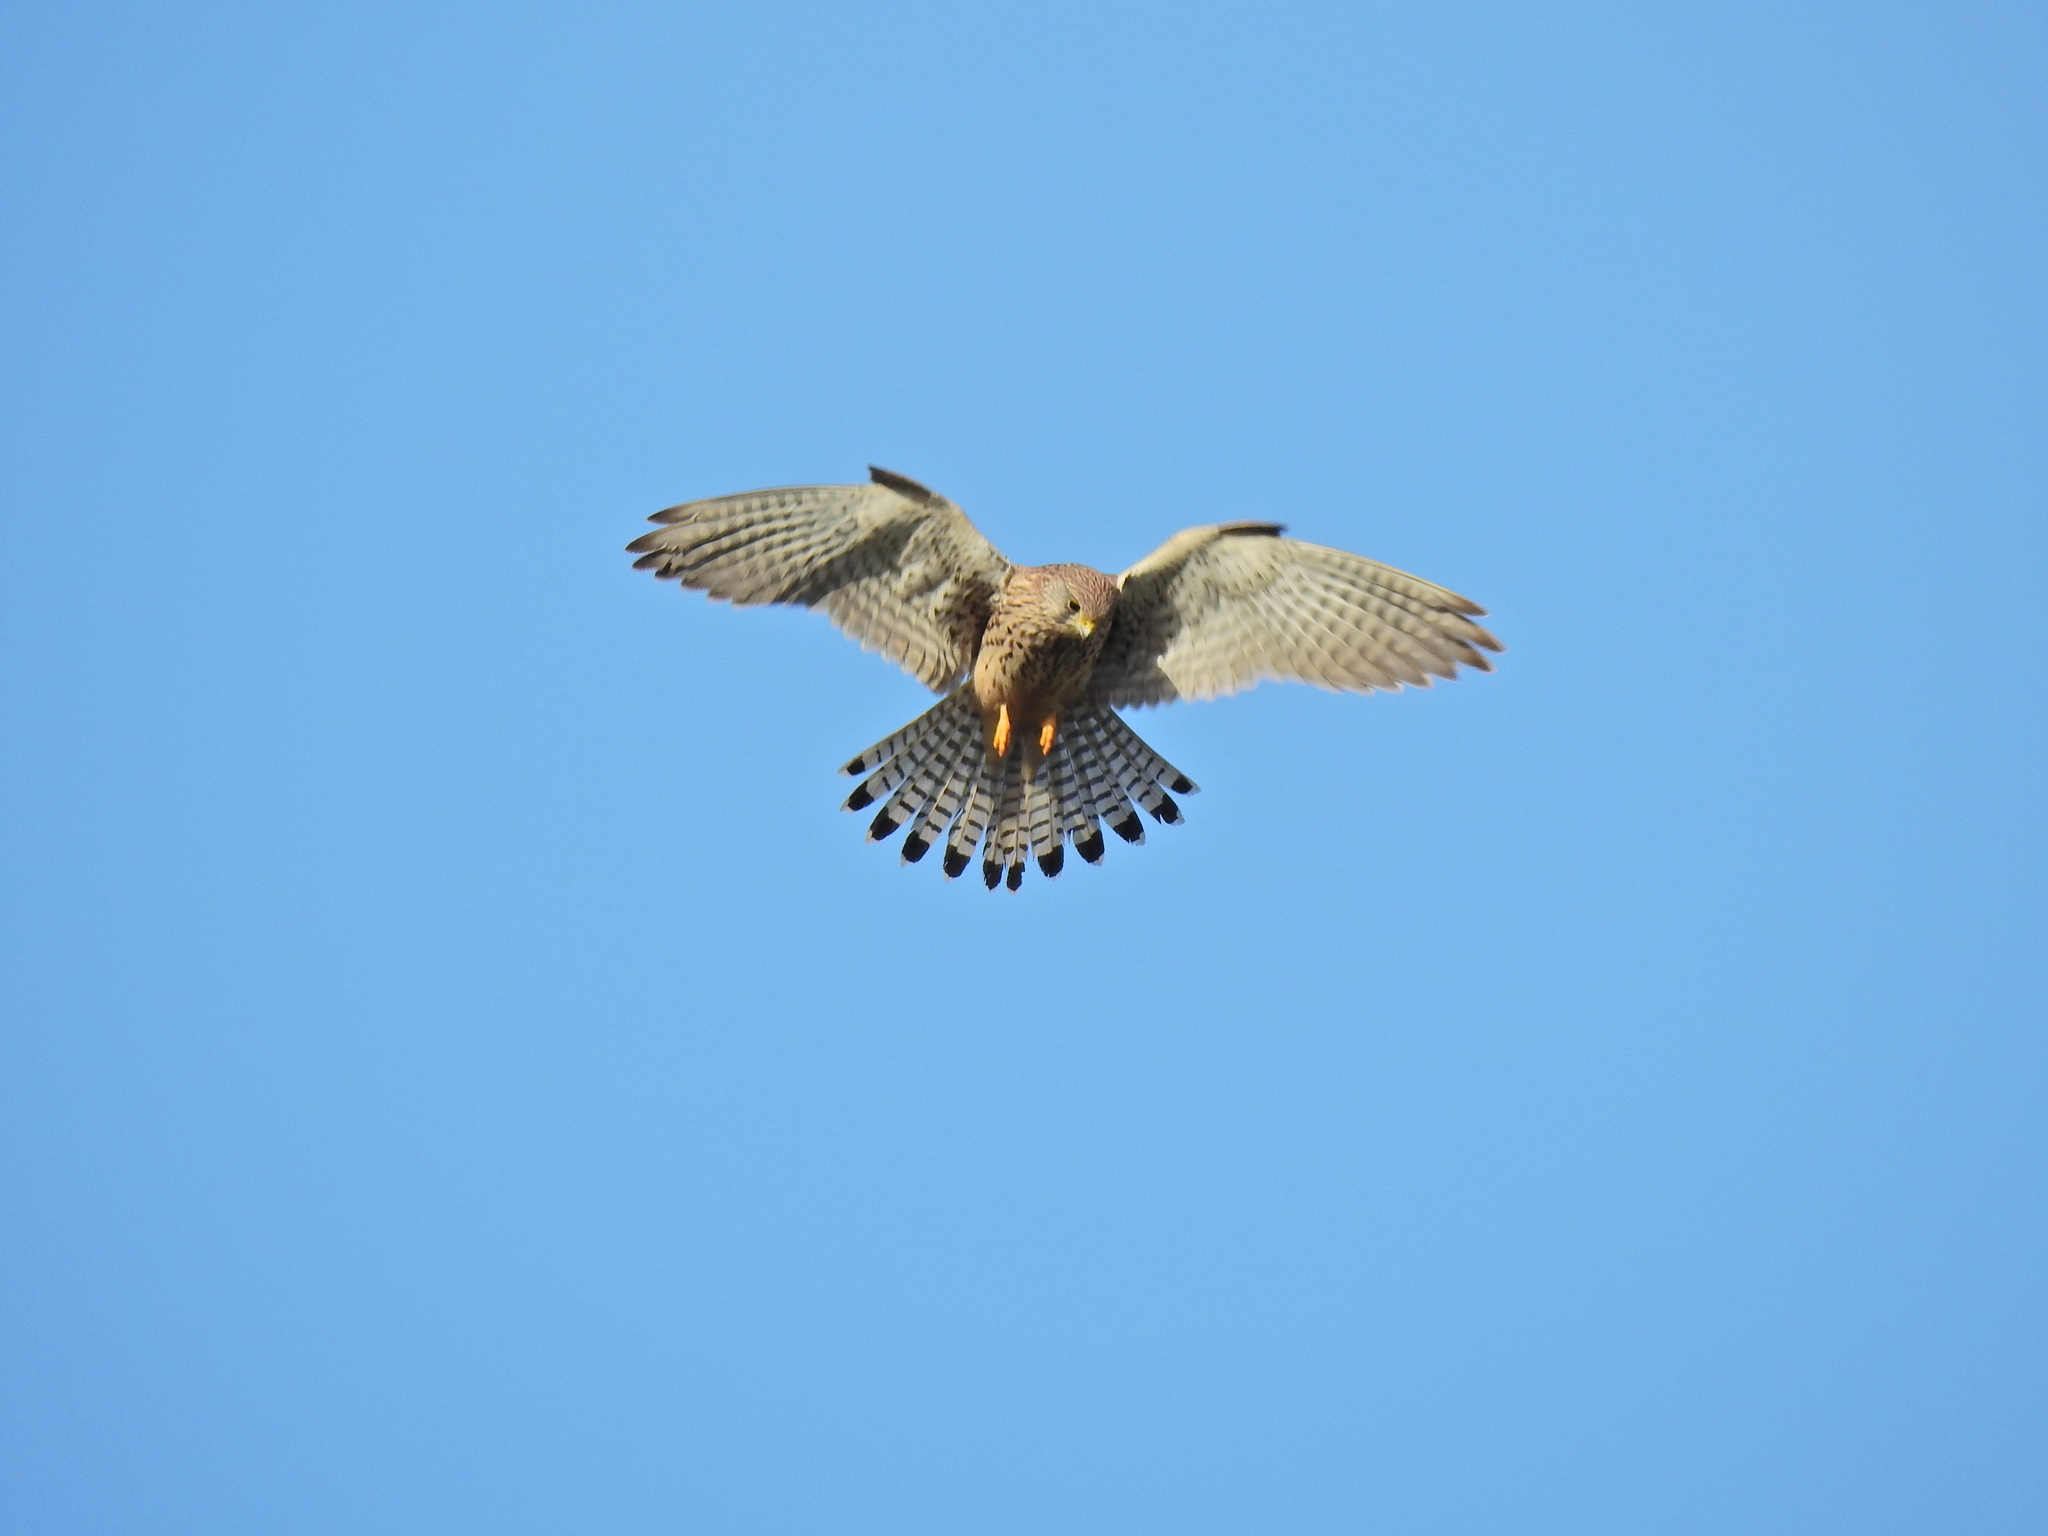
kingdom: Animalia
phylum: Chordata
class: Aves
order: Falconiformes
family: Falconidae
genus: Falco
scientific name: Falco tinnunculus
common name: Common kestrel
